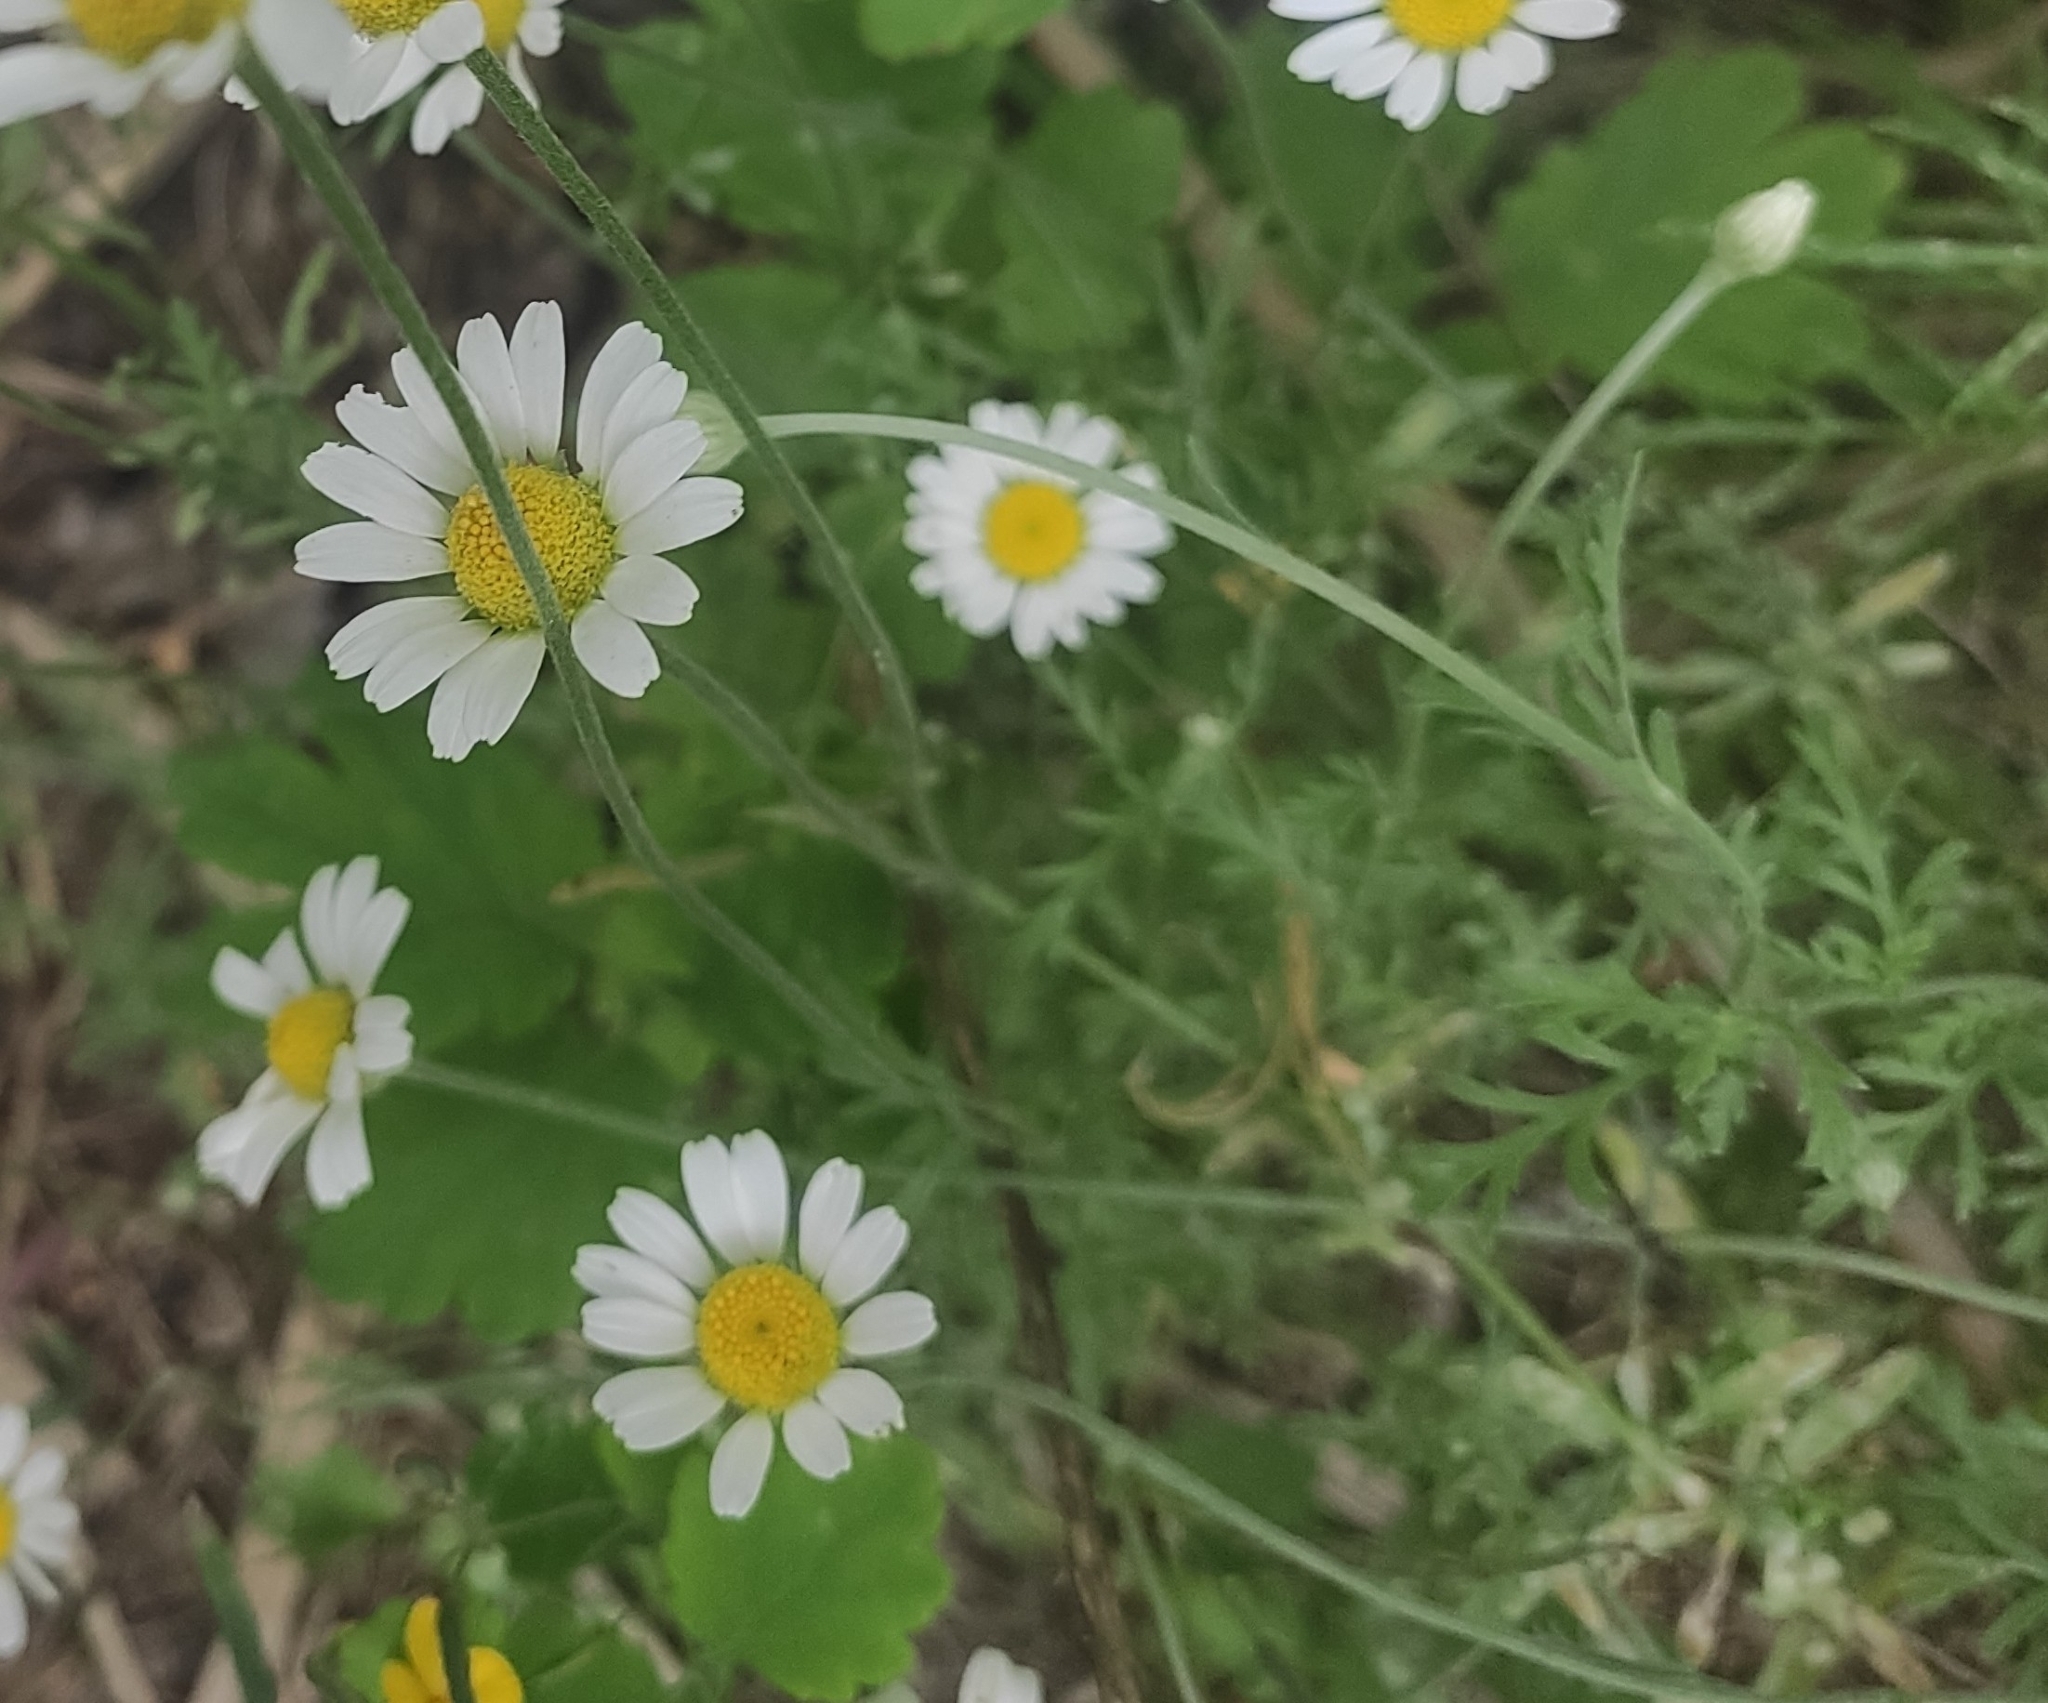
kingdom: Plantae
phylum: Tracheophyta
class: Magnoliopsida
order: Asterales
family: Asteraceae
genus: Anthemis
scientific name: Anthemis ruthenica
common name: Eastern chamomile
